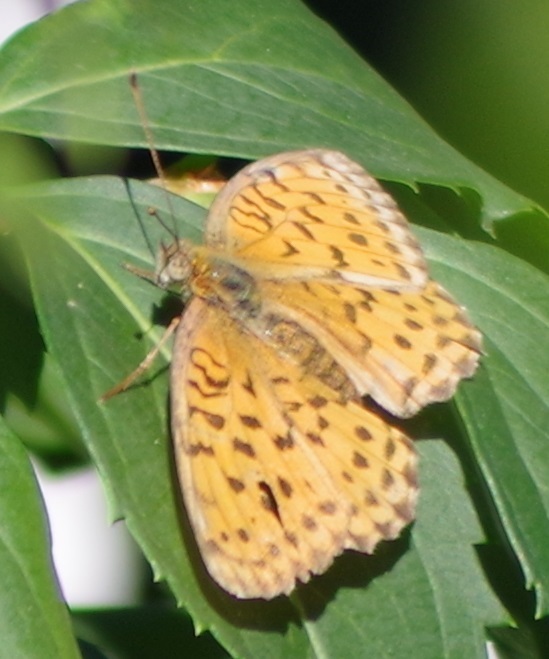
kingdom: Animalia
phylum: Arthropoda
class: Insecta
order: Lepidoptera
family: Nymphalidae
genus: Brenthis
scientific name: Brenthis daphne
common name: Marbled fritillary
